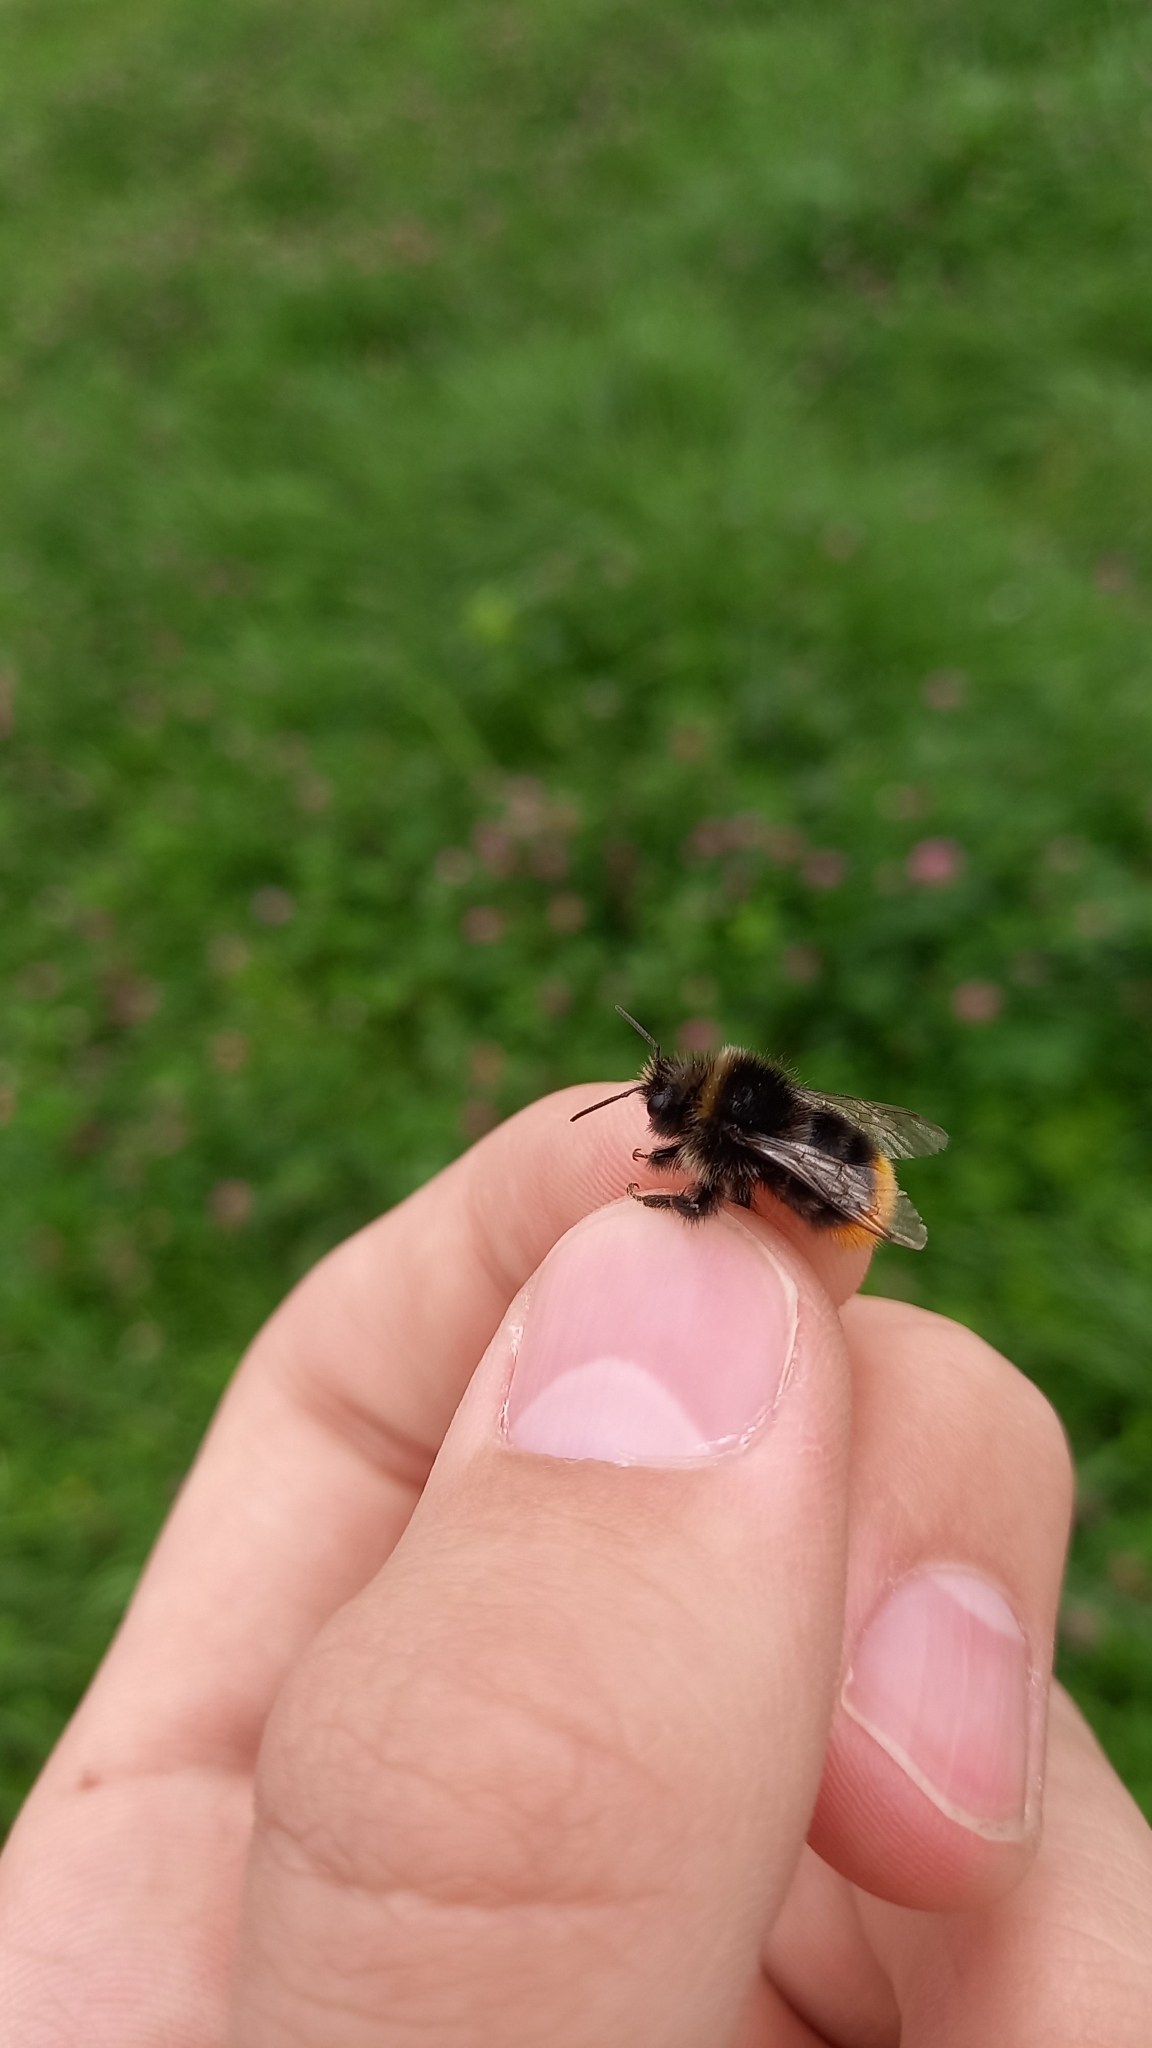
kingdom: Animalia
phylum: Arthropoda
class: Insecta
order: Hymenoptera
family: Apidae
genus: Bombus
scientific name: Bombus lapidarius
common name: Large red-tailed humble-bee
